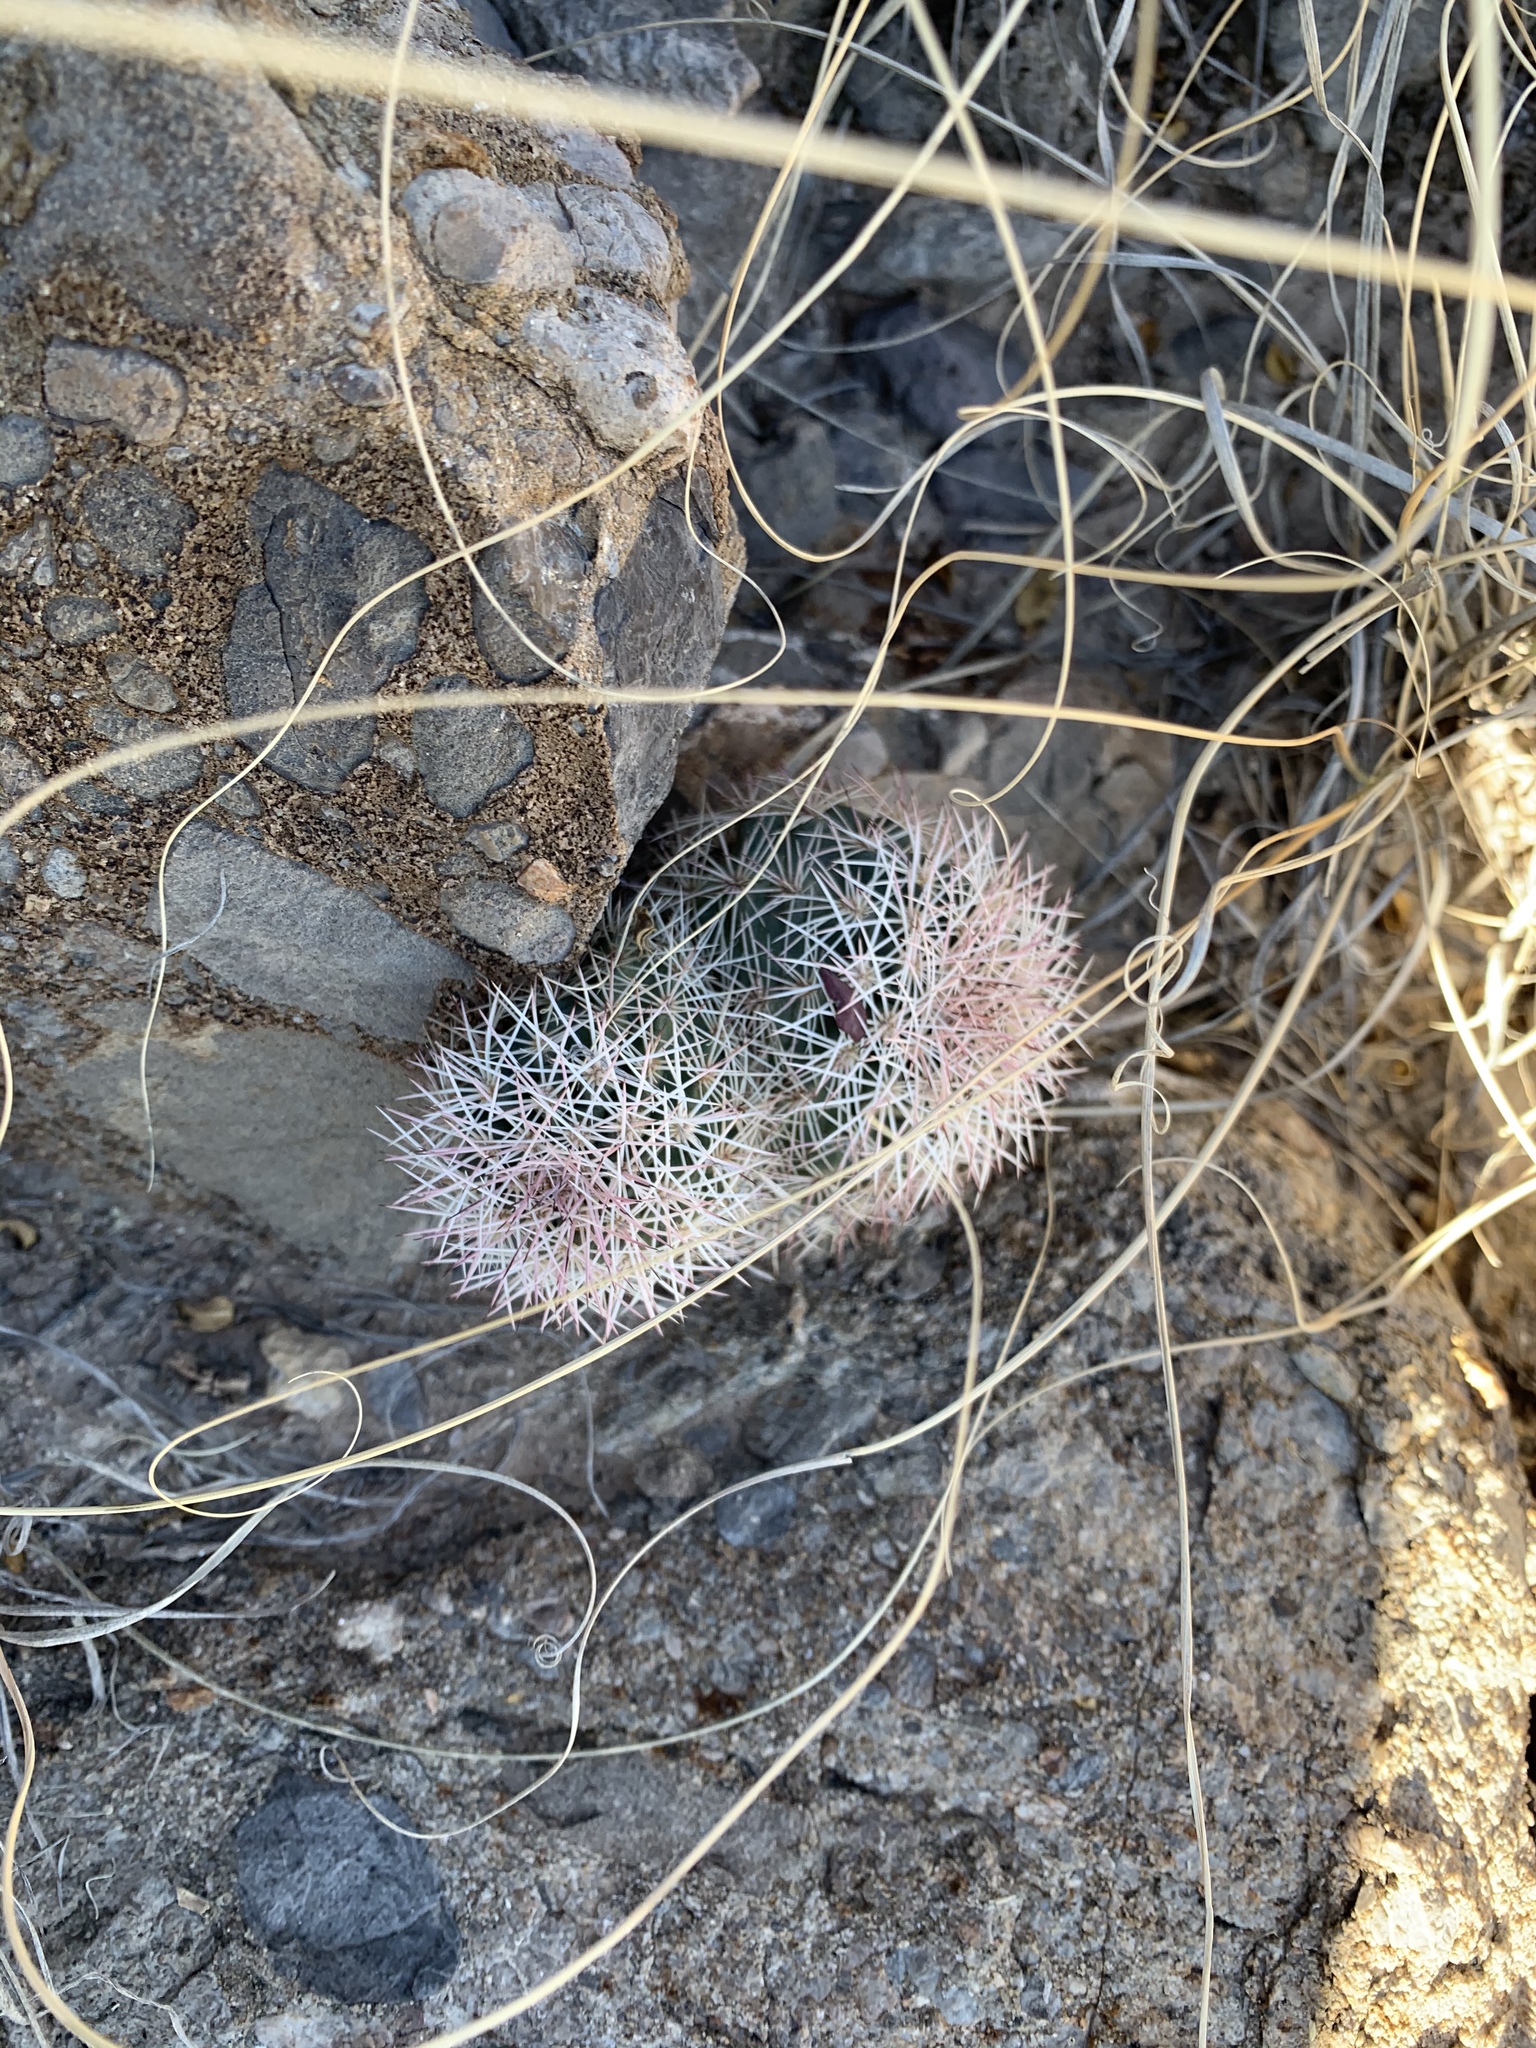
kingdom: Plantae
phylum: Tracheophyta
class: Magnoliopsida
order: Caryophyllales
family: Cactaceae
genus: Echinocereus
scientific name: Echinocereus dasyacanthus
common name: Spiny hedgehog cactus
